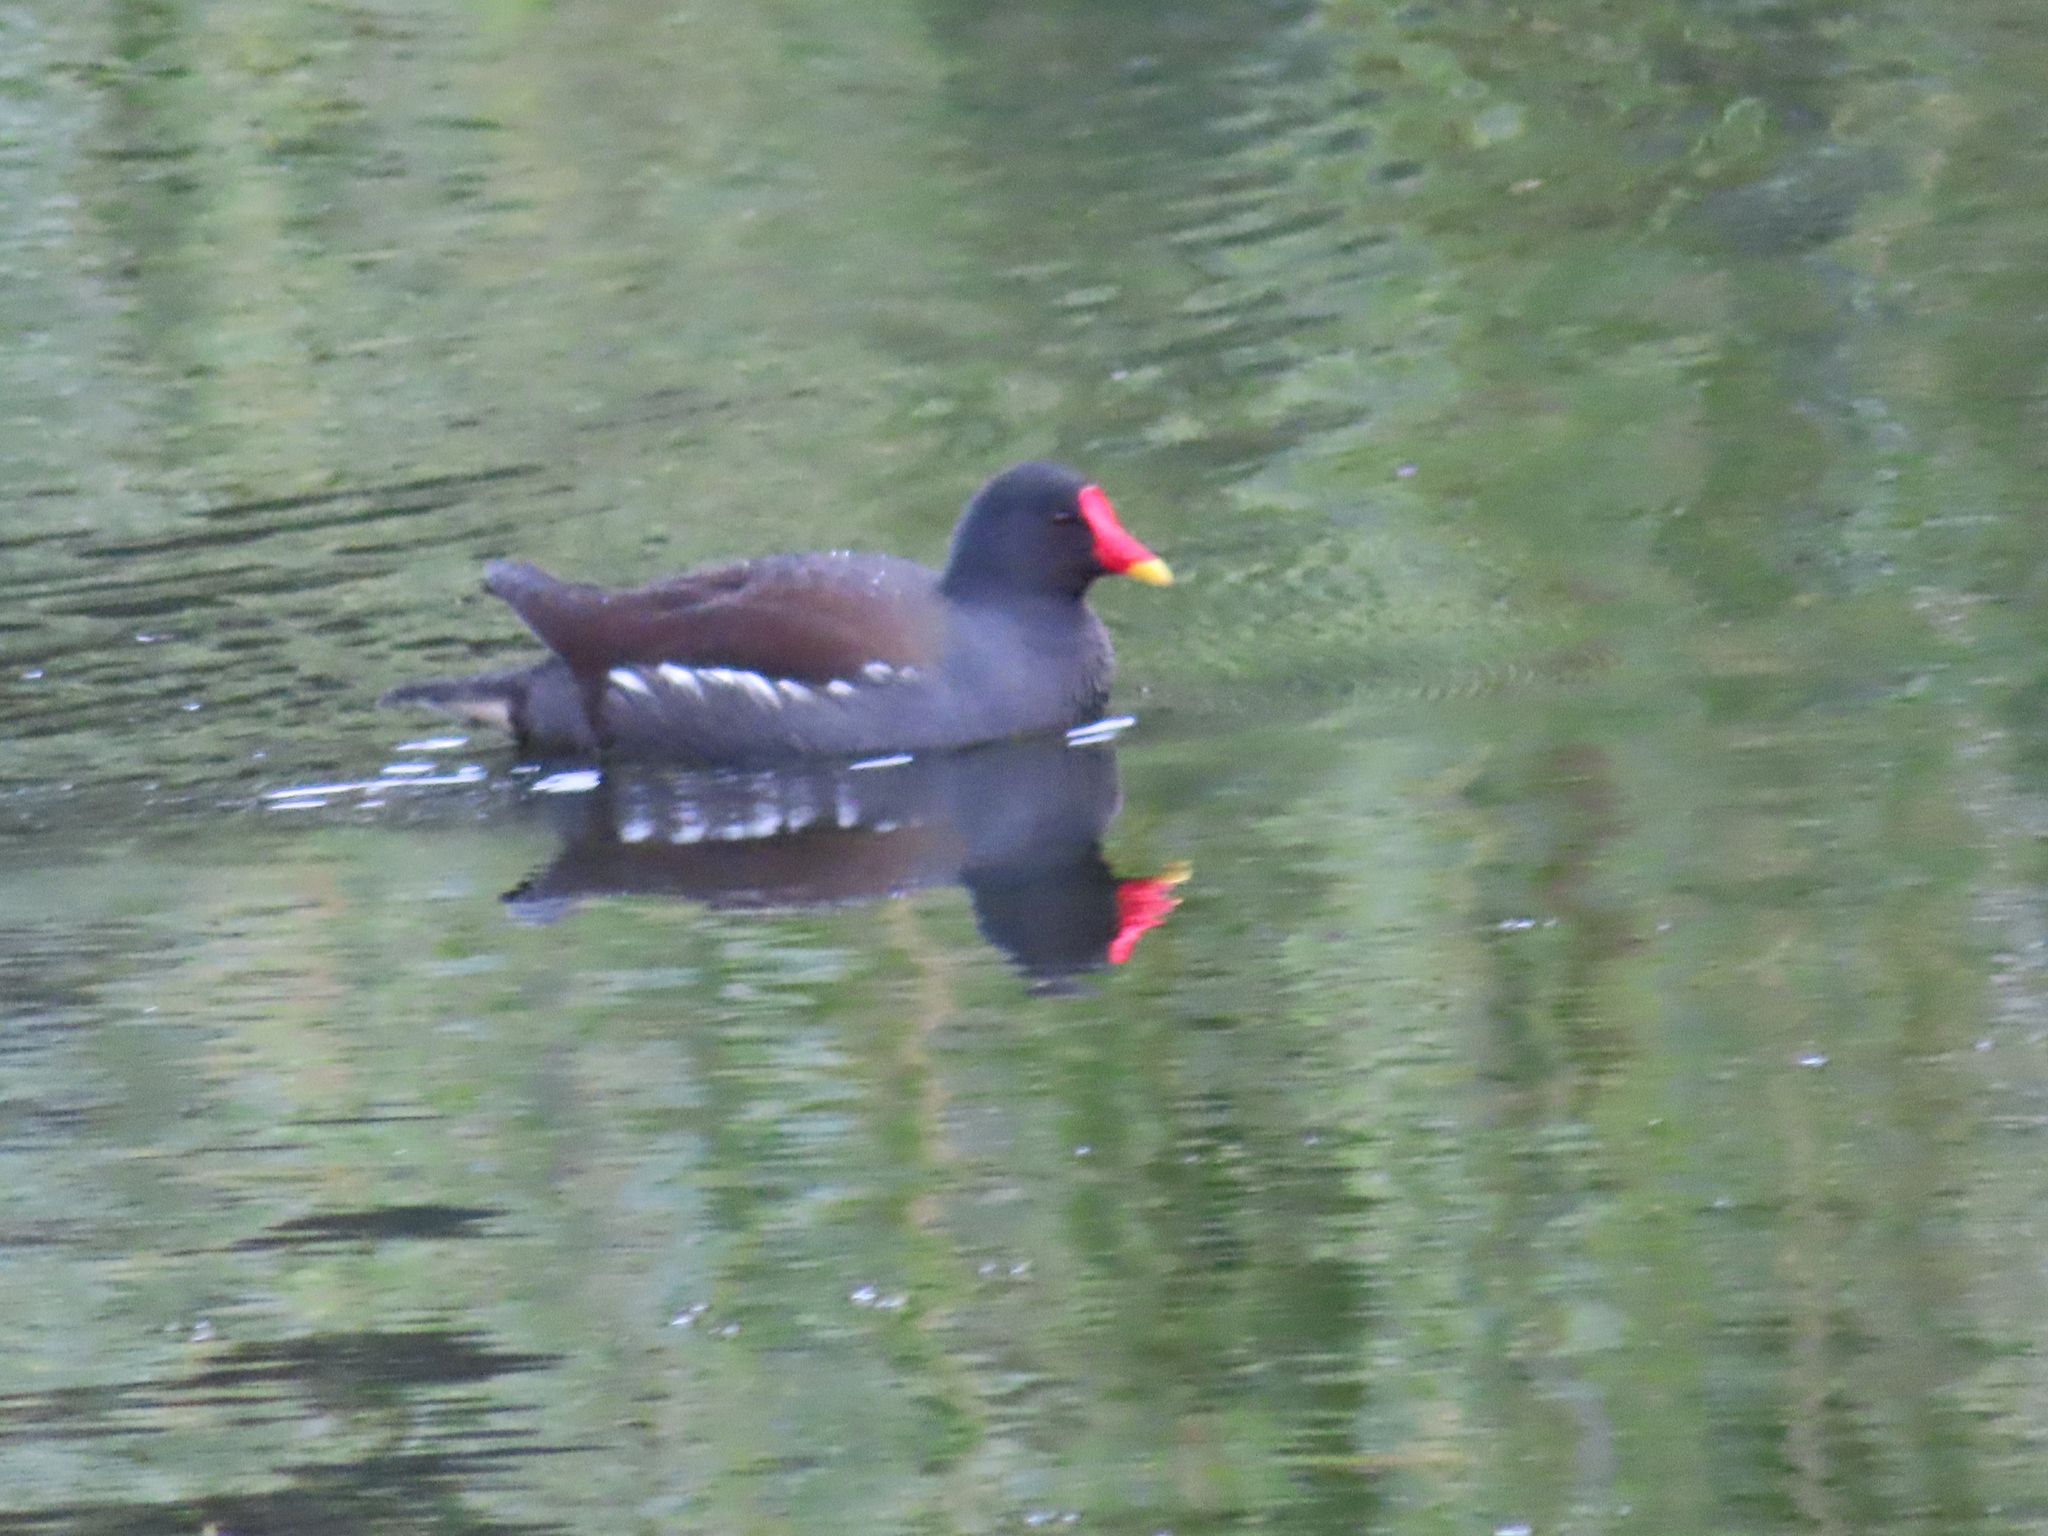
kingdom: Animalia
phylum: Chordata
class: Aves
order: Gruiformes
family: Rallidae
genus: Gallinula
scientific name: Gallinula chloropus
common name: Common moorhen
